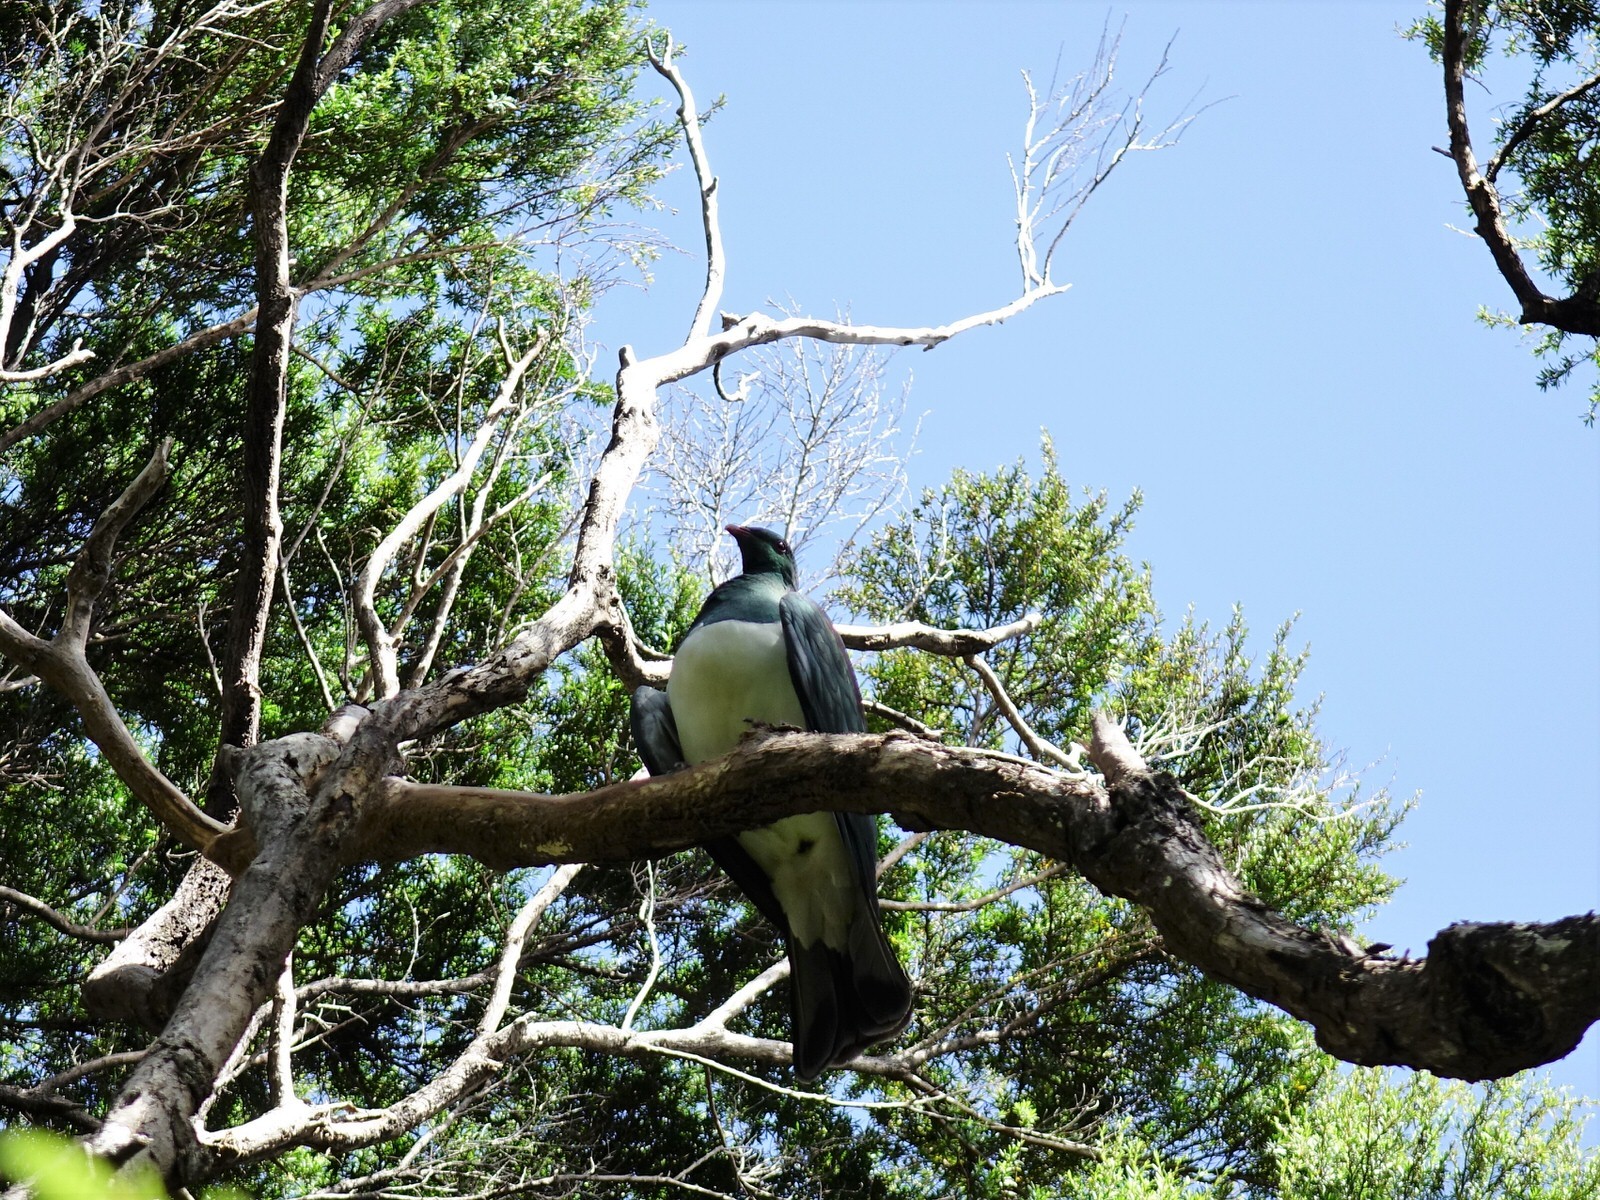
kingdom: Animalia
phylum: Chordata
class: Aves
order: Columbiformes
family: Columbidae
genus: Hemiphaga
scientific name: Hemiphaga novaeseelandiae
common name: New zealand pigeon
